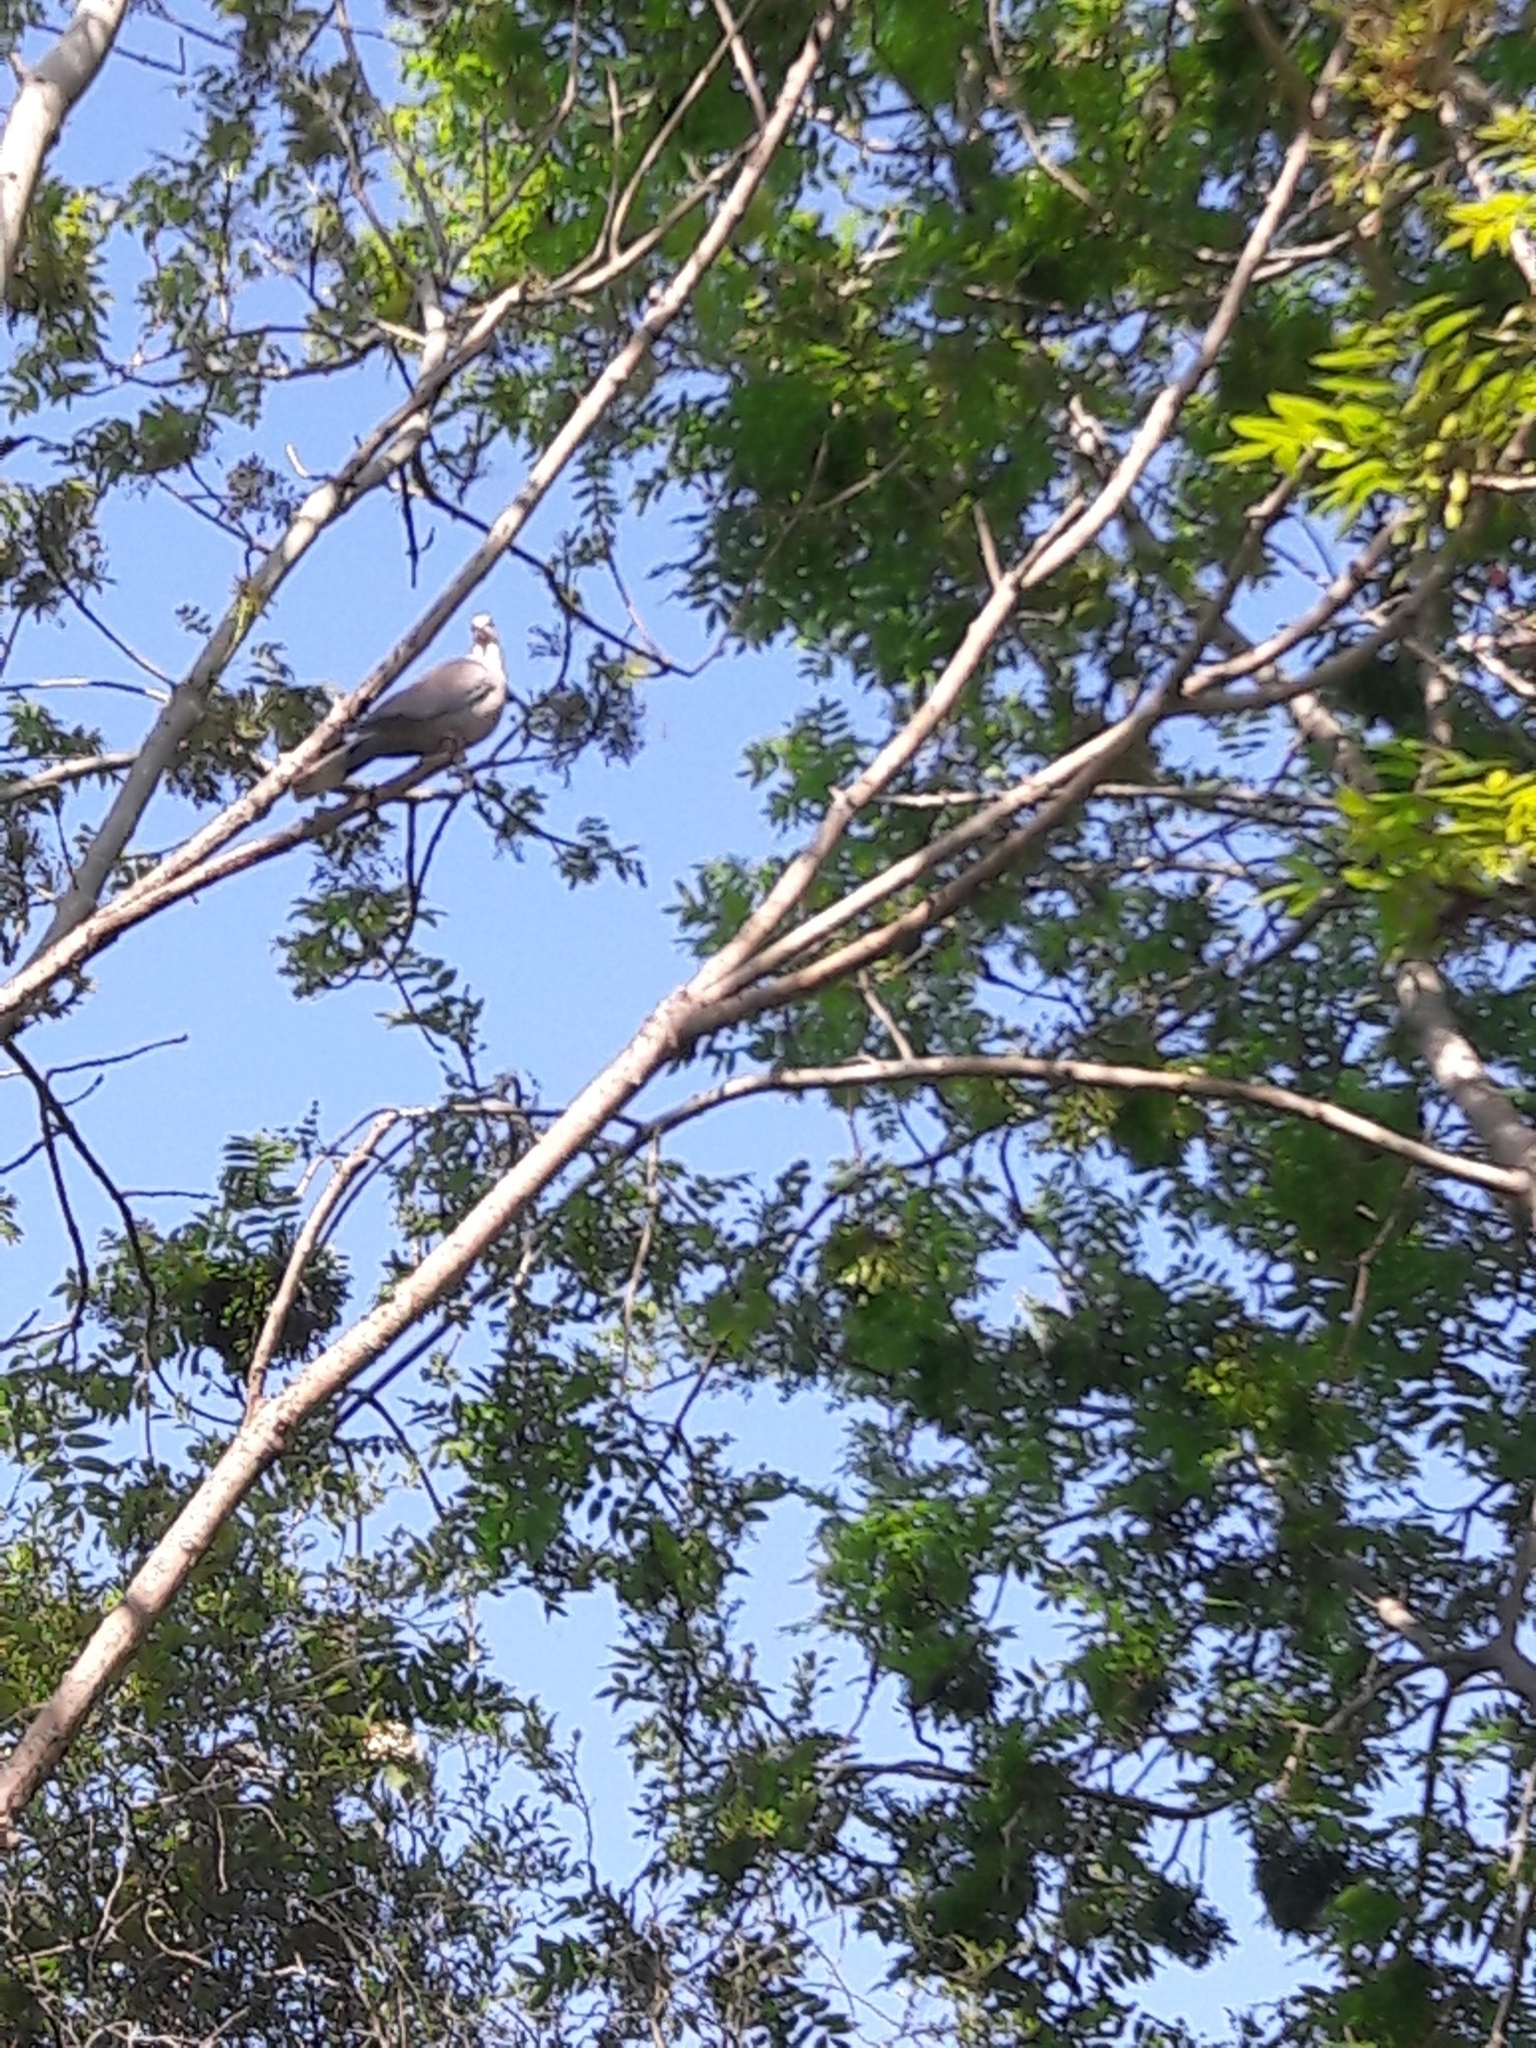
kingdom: Animalia
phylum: Chordata
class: Aves
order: Columbiformes
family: Columbidae
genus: Streptopelia
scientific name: Streptopelia decaocto
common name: Eurasian collared dove
